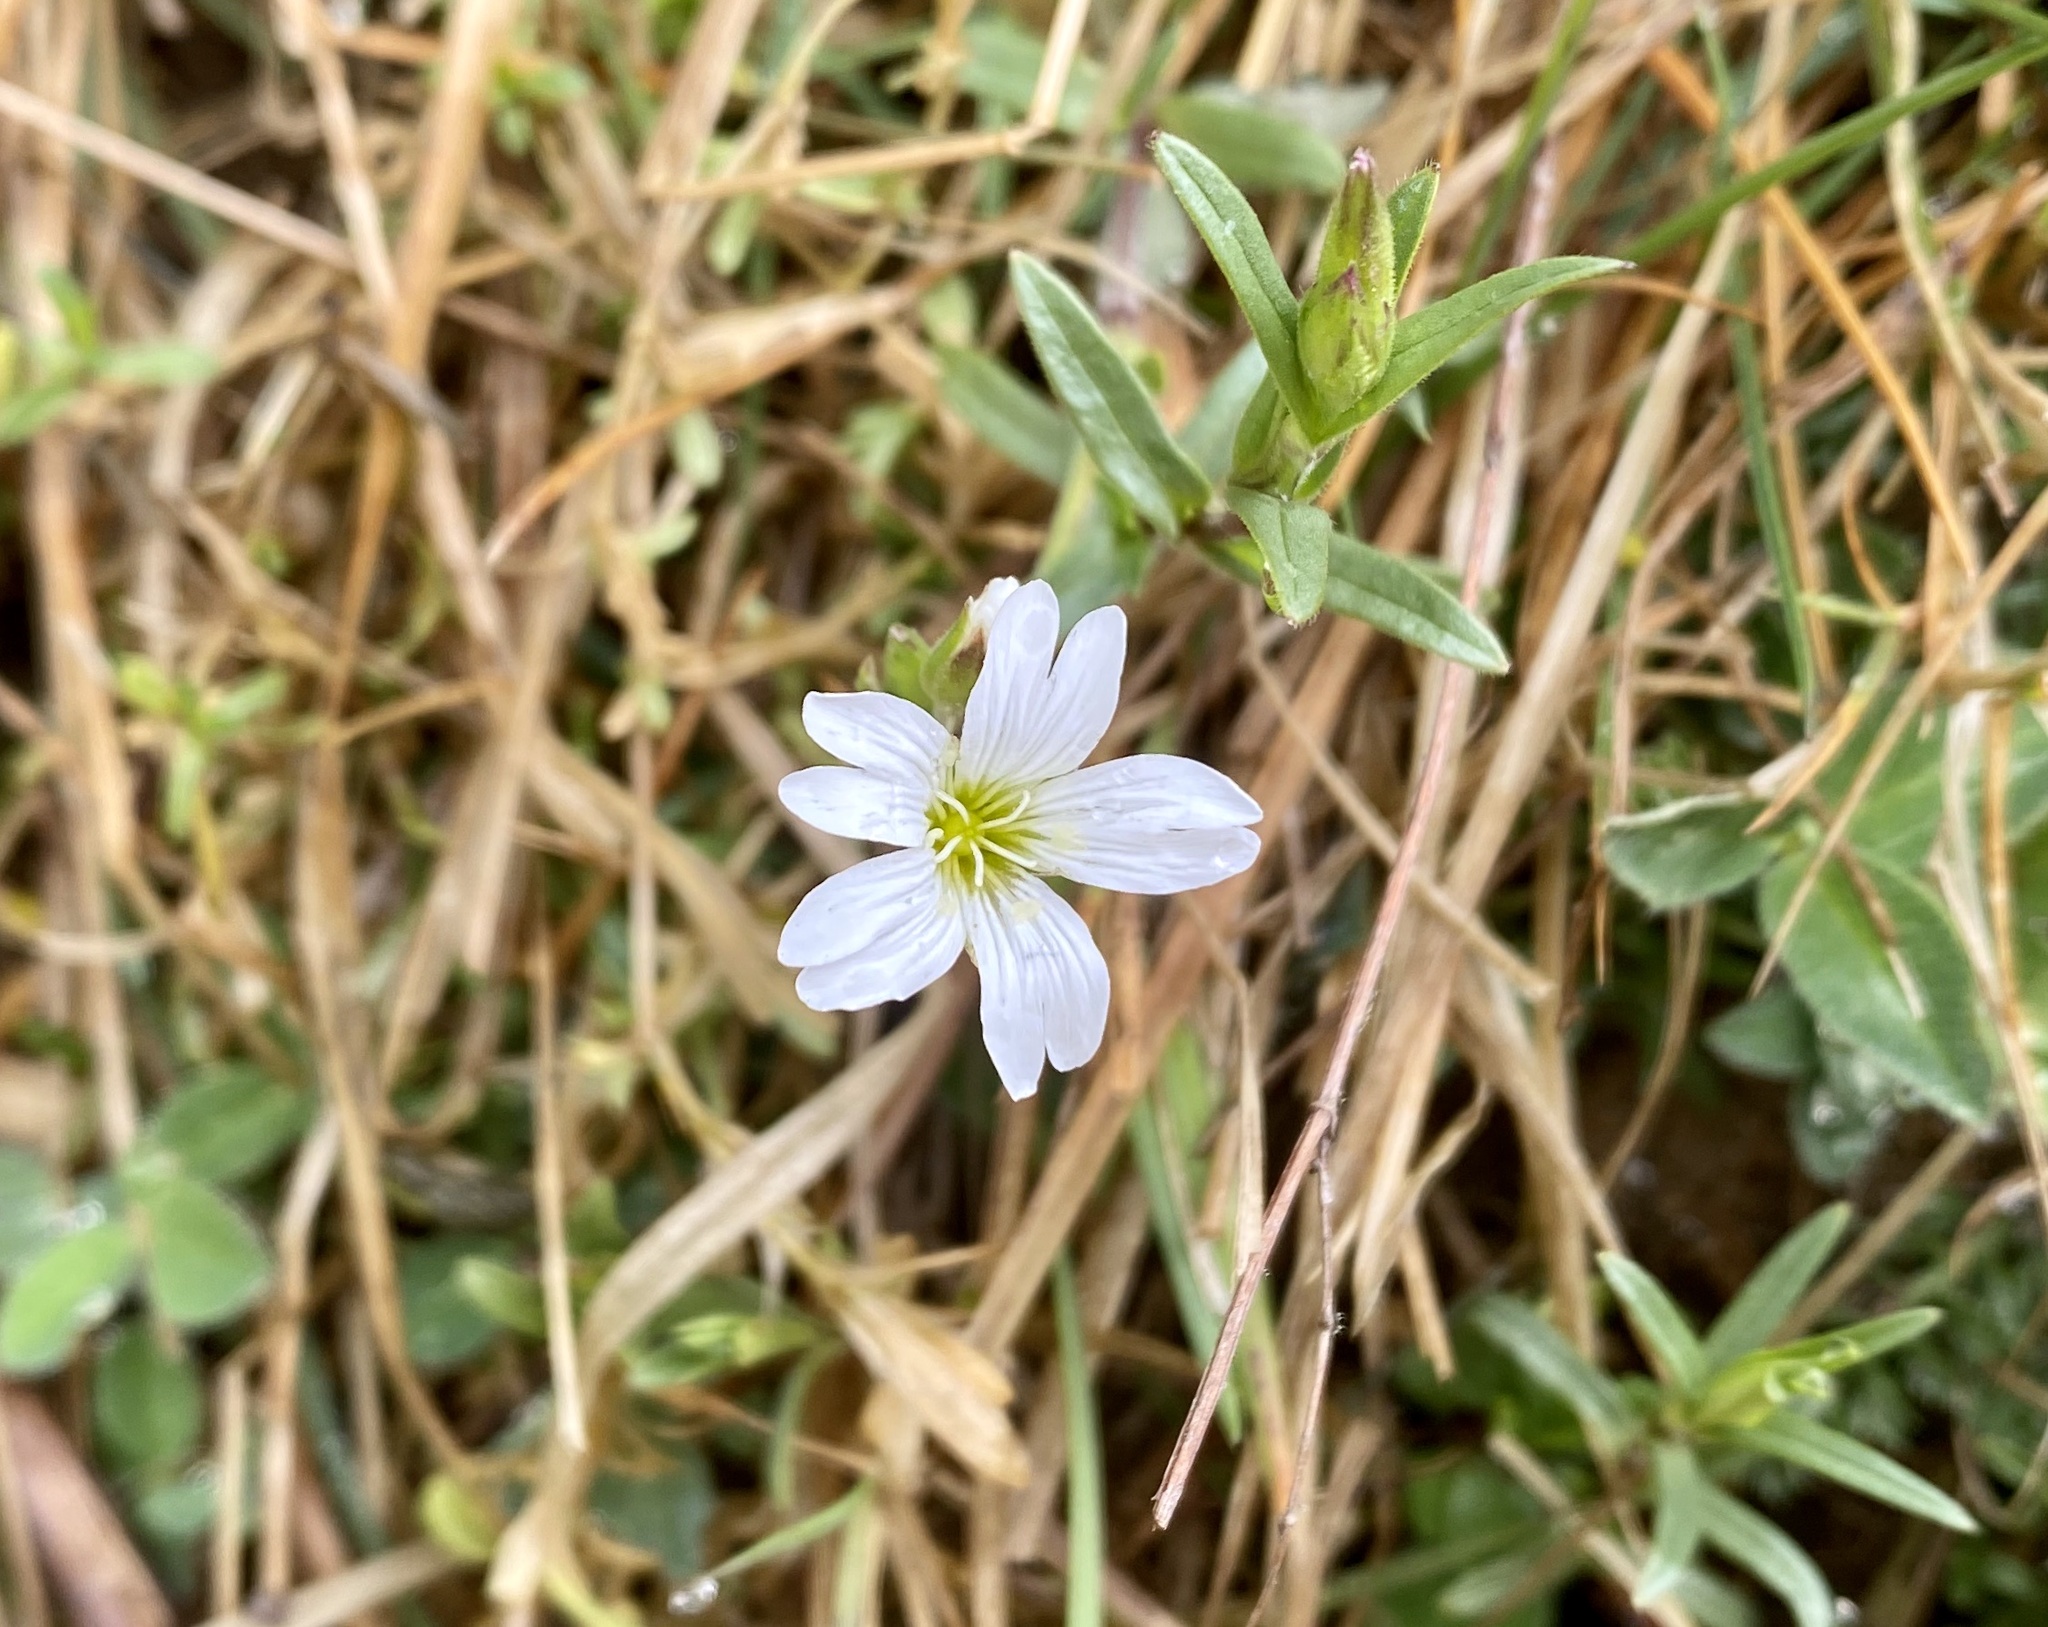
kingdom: Plantae
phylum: Tracheophyta
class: Magnoliopsida
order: Caryophyllales
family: Caryophyllaceae
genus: Cerastium
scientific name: Cerastium arvense
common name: Field mouse-ear
